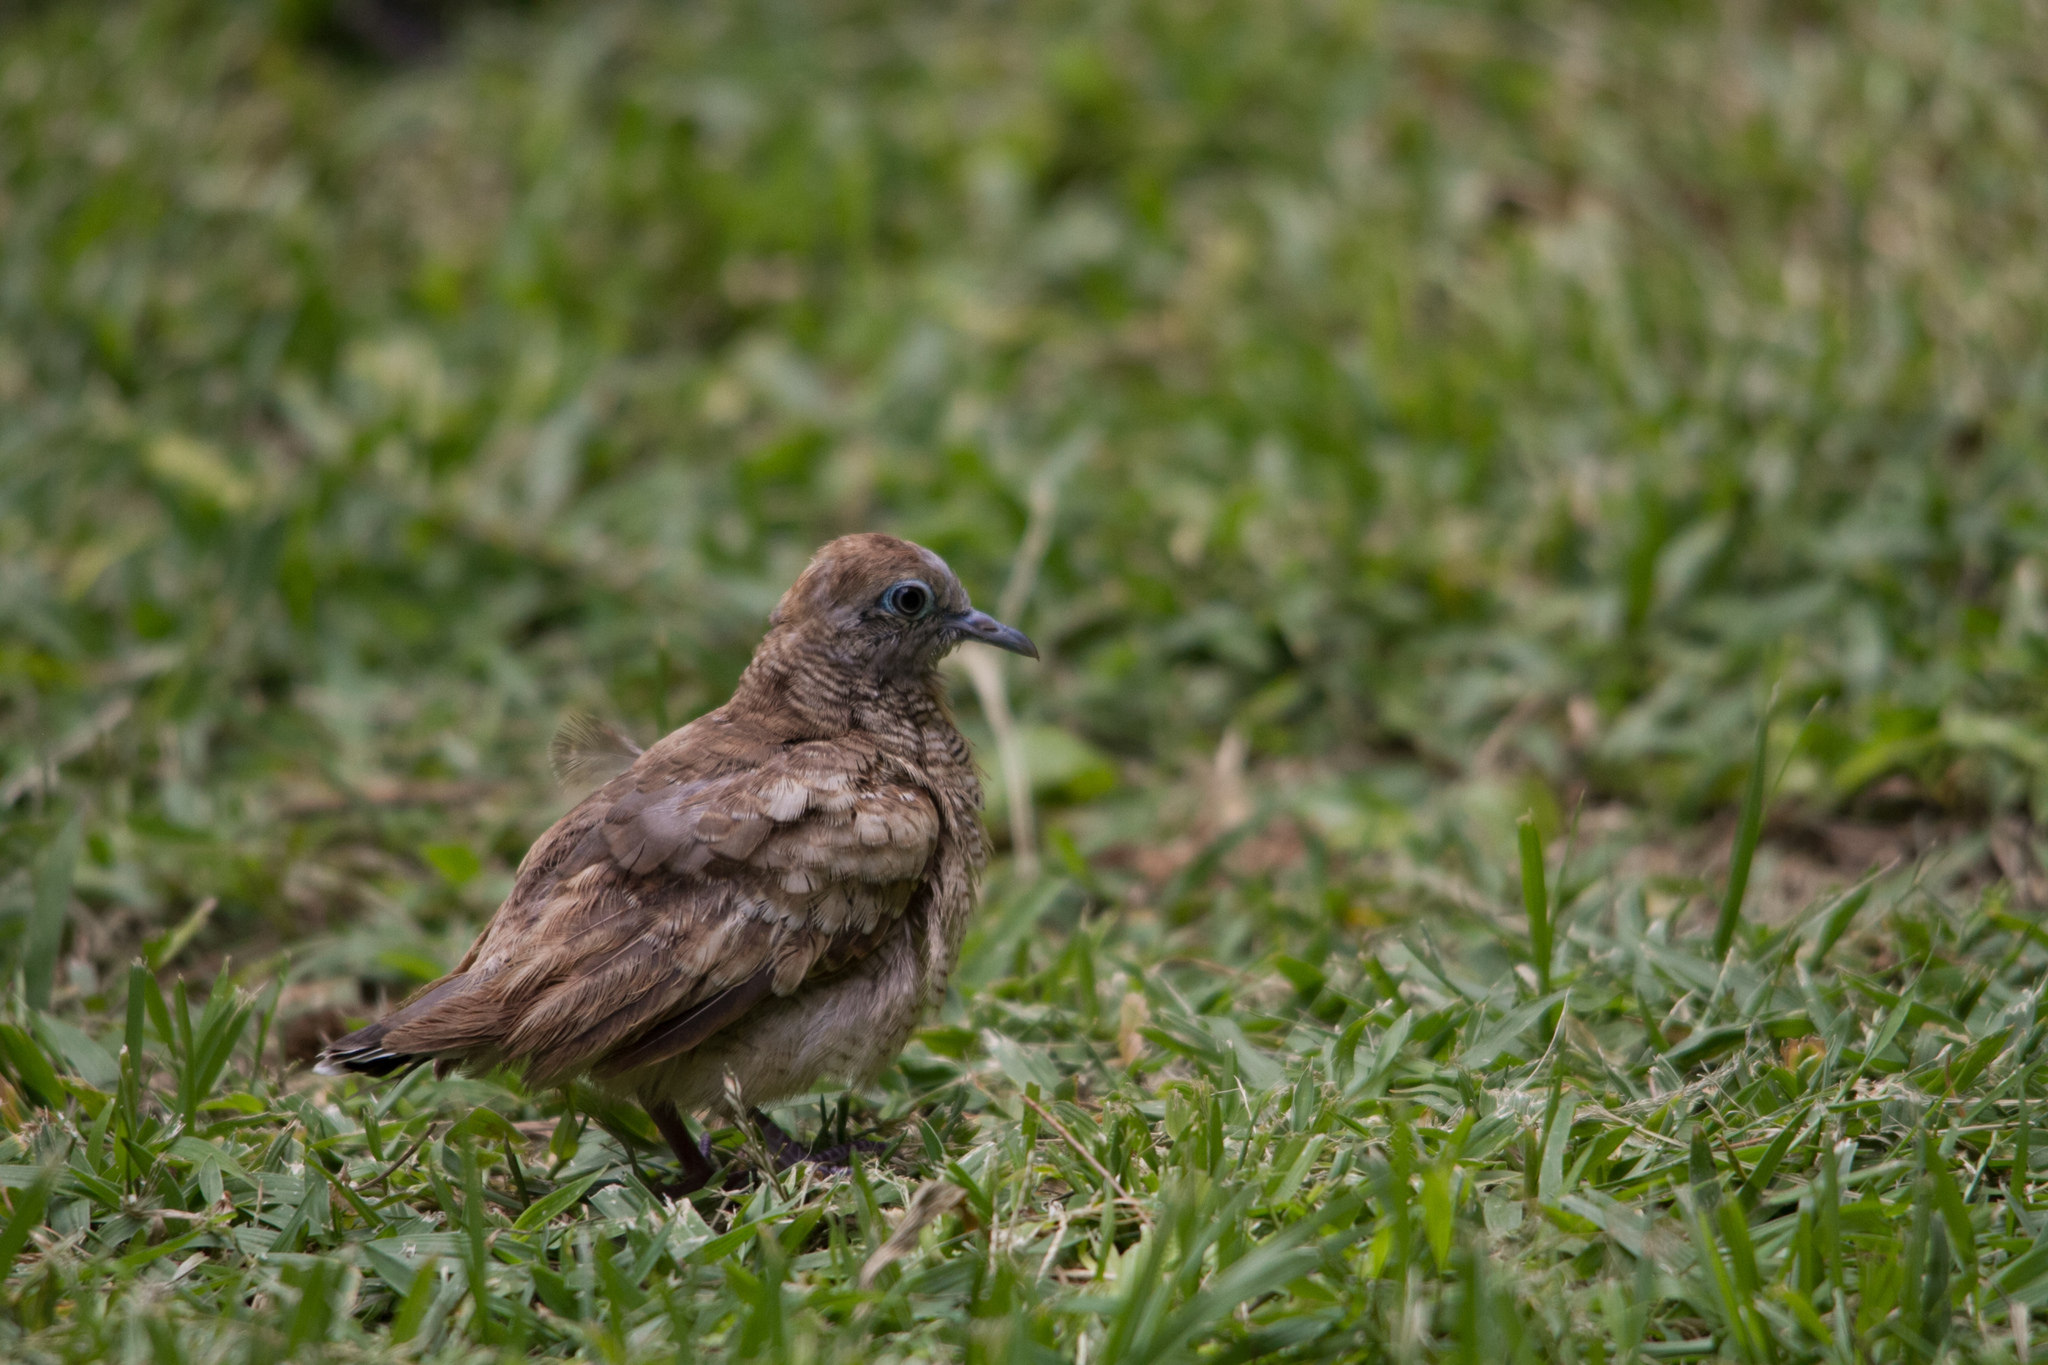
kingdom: Animalia
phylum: Chordata
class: Aves
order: Columbiformes
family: Columbidae
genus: Geopelia
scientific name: Geopelia striata
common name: Zebra dove
